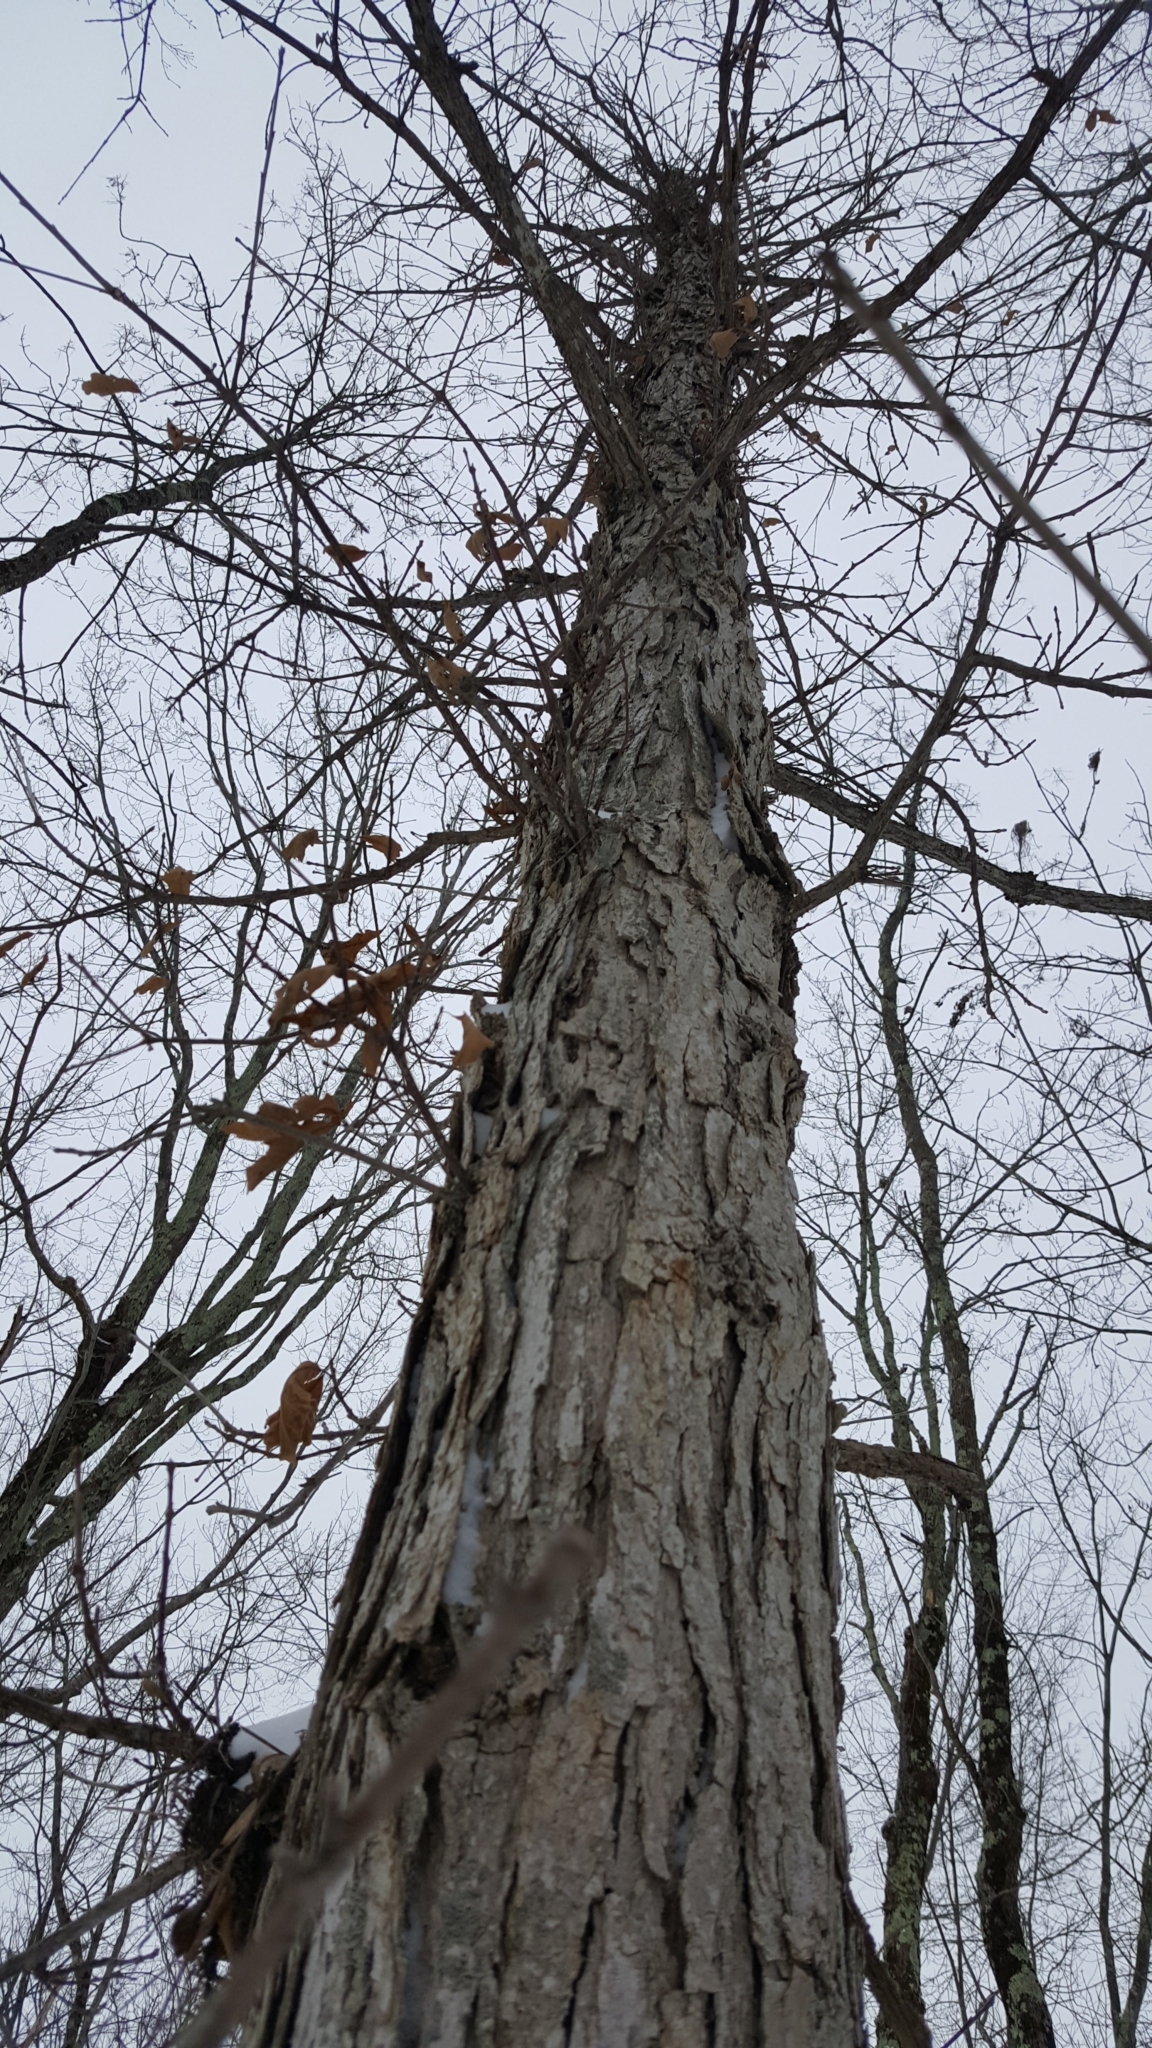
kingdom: Plantae
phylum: Tracheophyta
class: Magnoliopsida
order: Fagales
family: Fagaceae
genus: Quercus
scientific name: Quercus bicolor
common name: Swamp white oak
